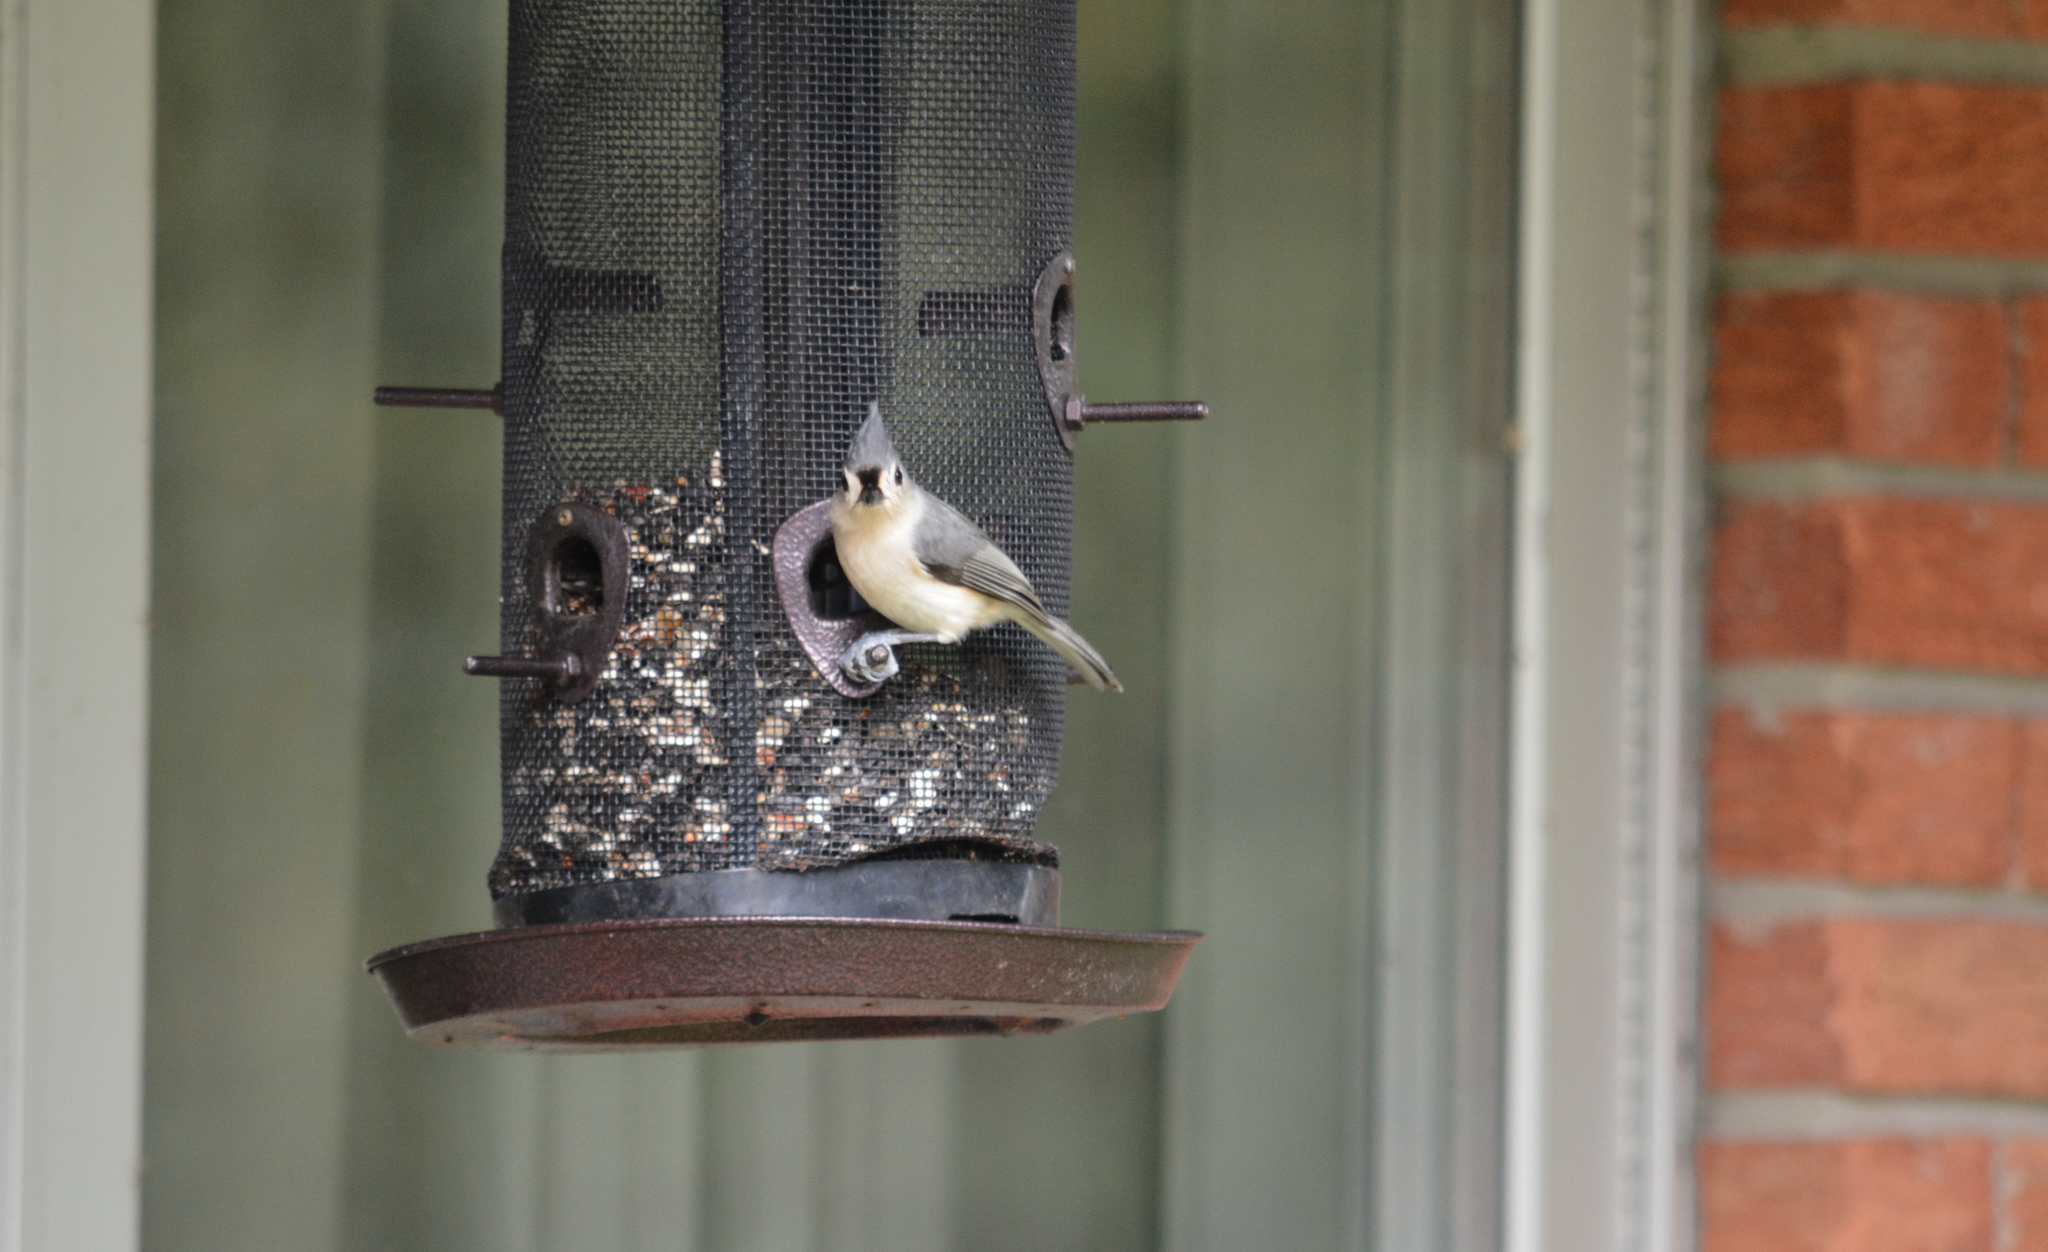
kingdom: Animalia
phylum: Chordata
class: Aves
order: Passeriformes
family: Paridae
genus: Baeolophus
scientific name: Baeolophus bicolor
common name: Tufted titmouse
